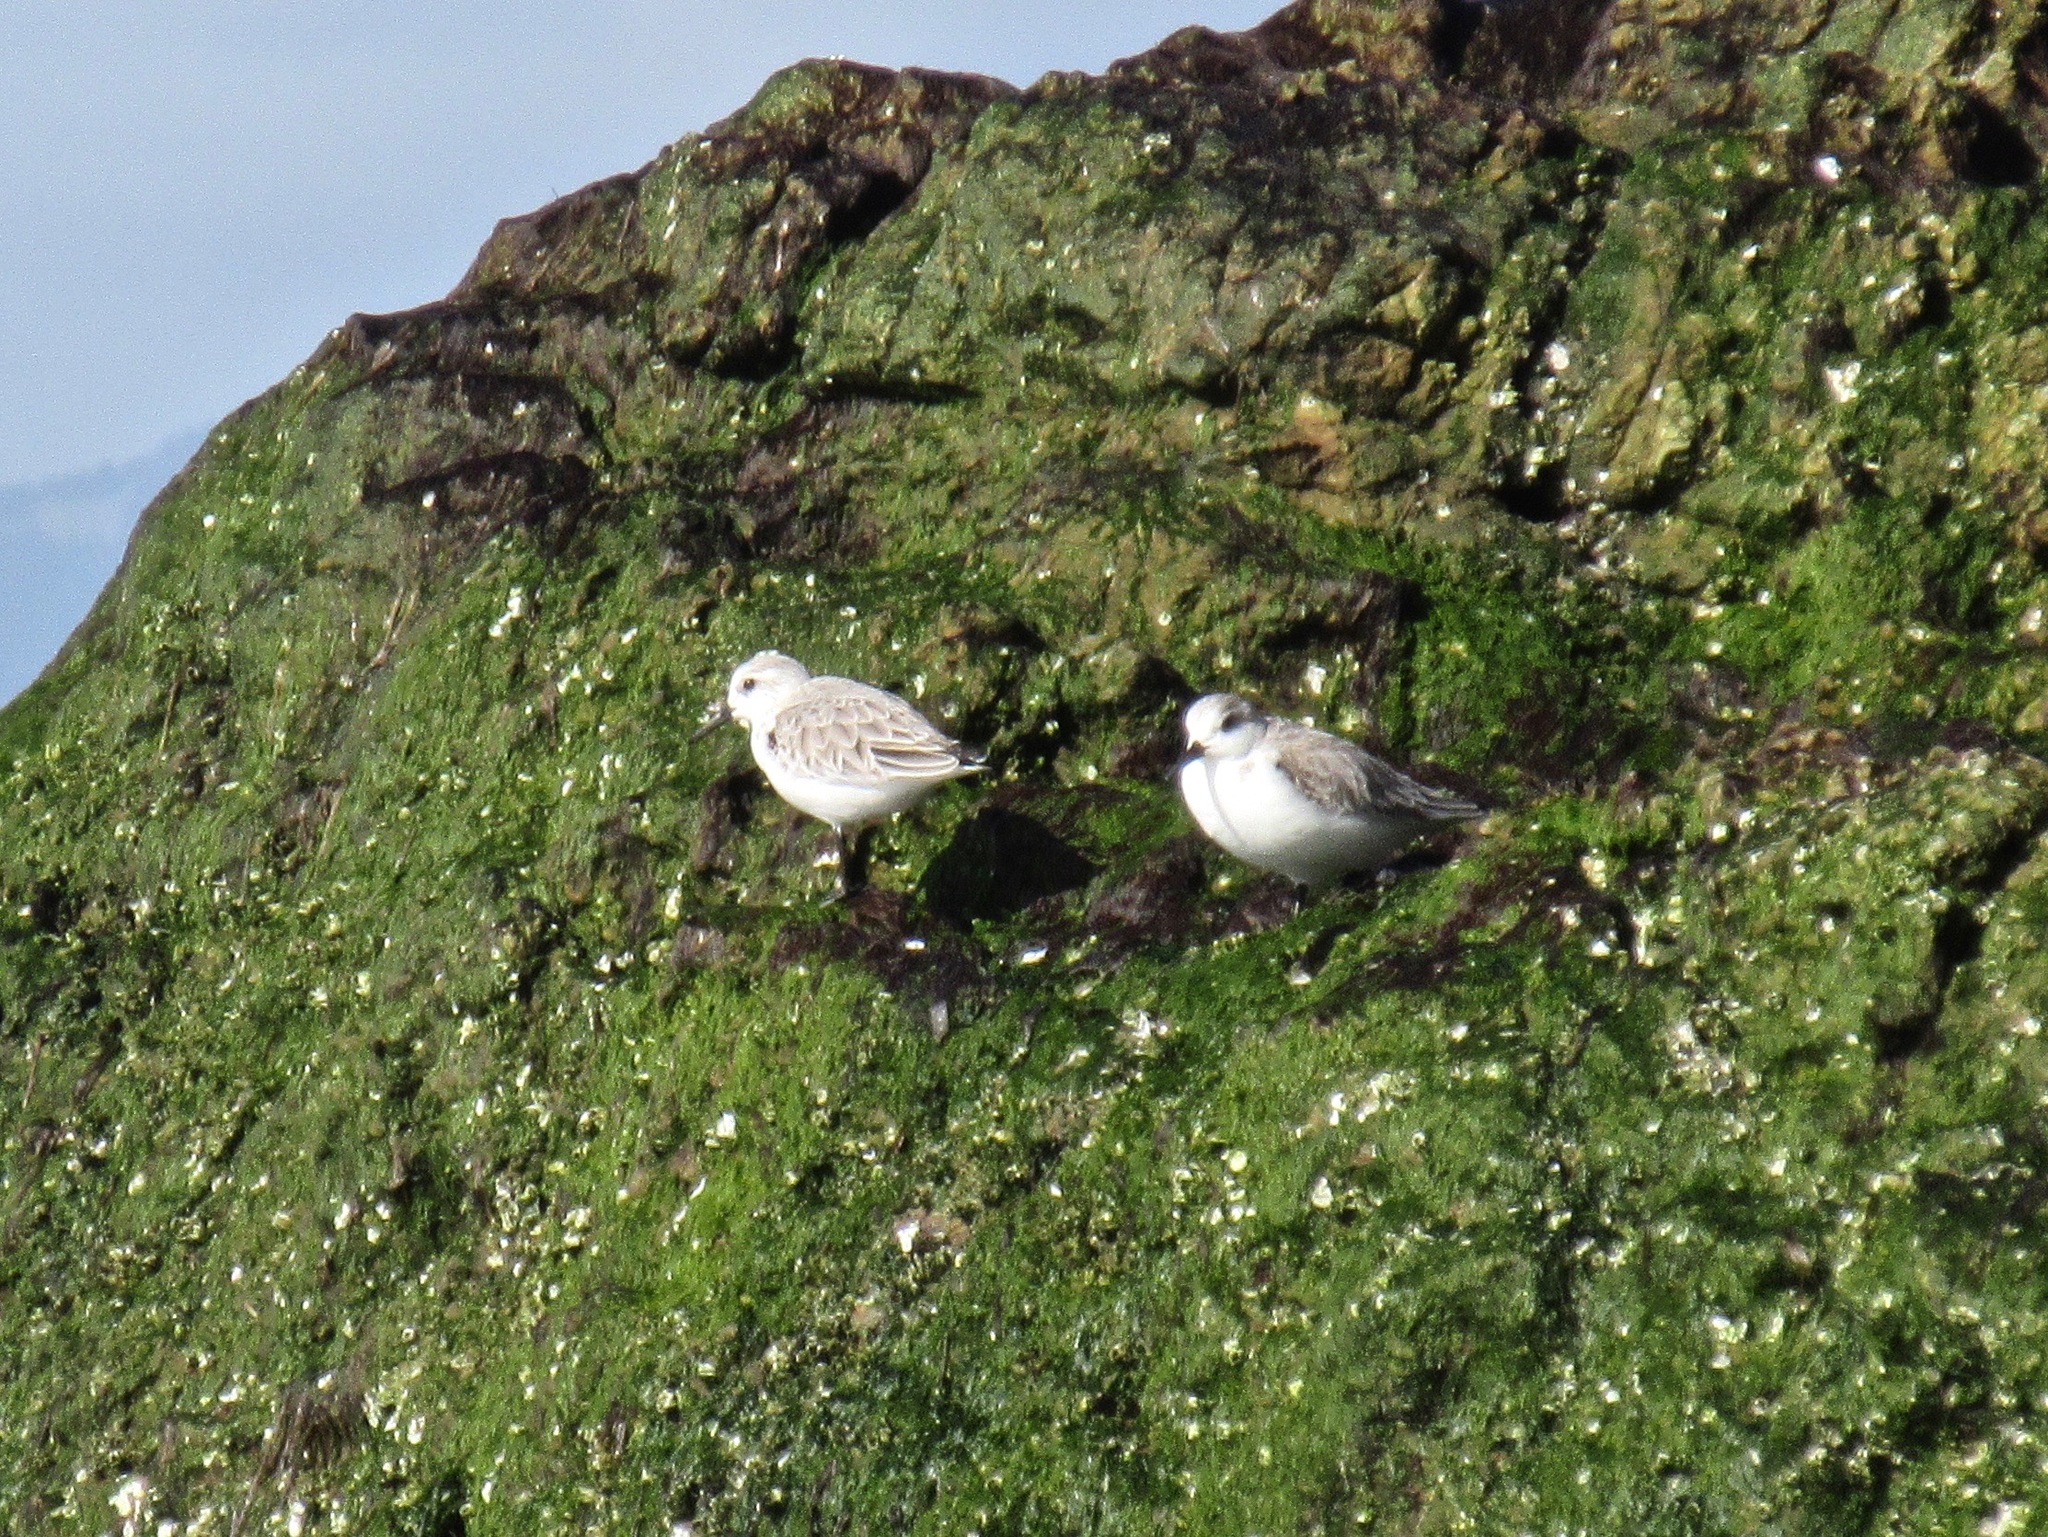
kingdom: Animalia
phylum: Chordata
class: Aves
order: Charadriiformes
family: Scolopacidae
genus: Calidris
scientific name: Calidris alba
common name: Sanderling
